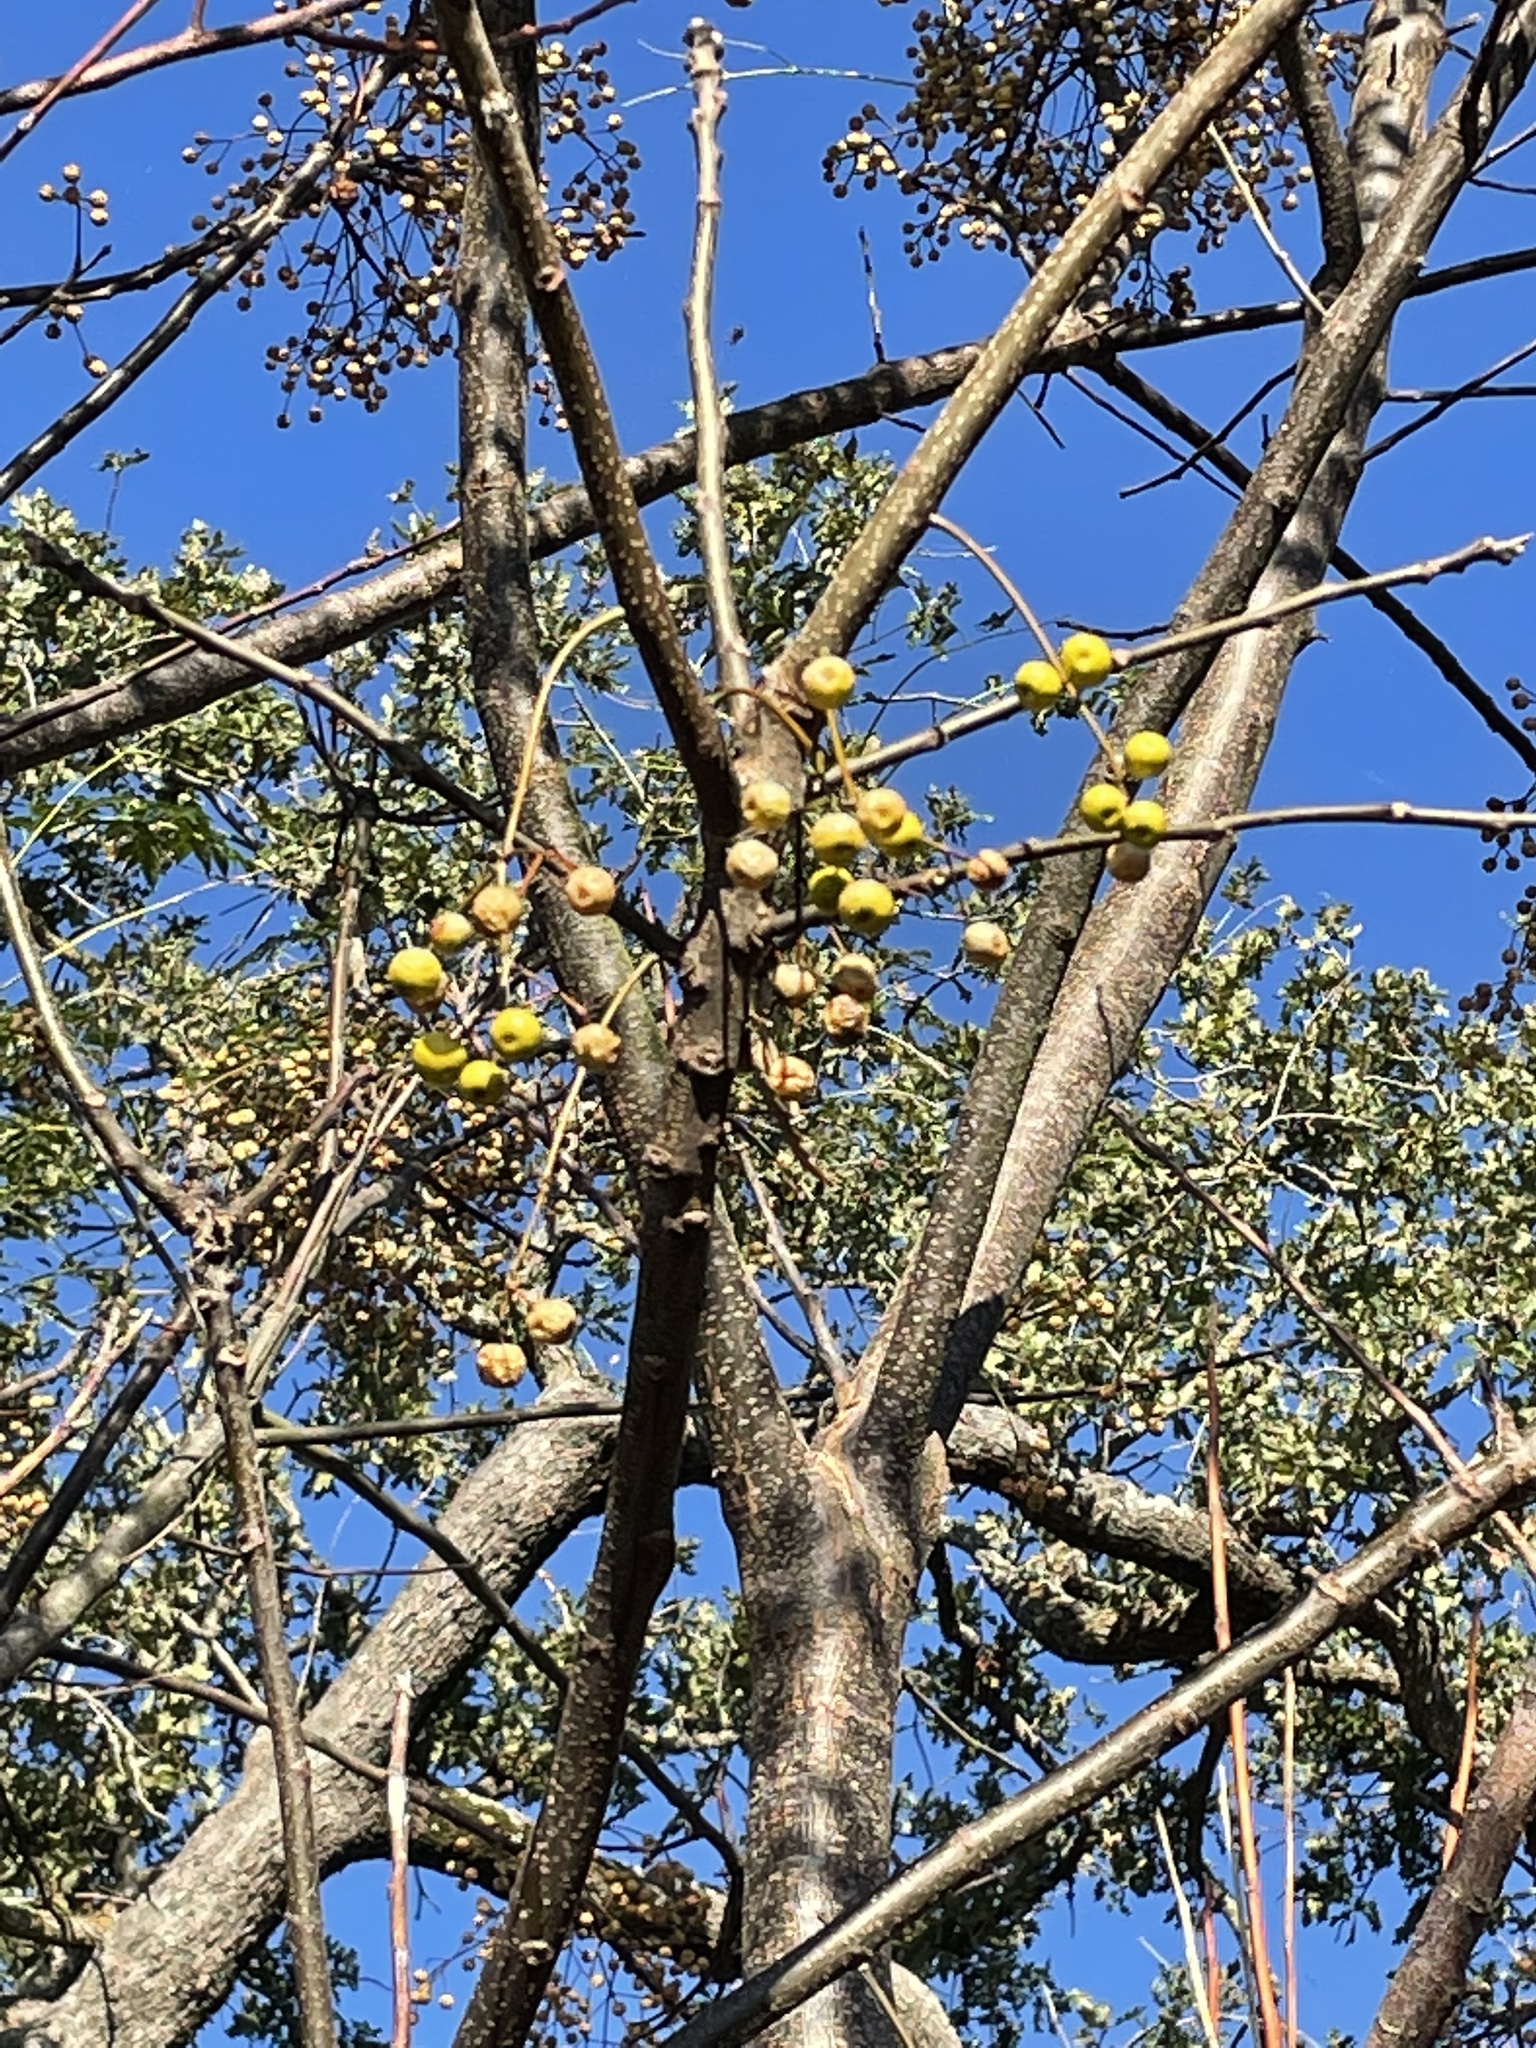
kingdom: Plantae
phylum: Tracheophyta
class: Magnoliopsida
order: Sapindales
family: Meliaceae
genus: Melia
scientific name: Melia azedarach
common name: Chinaberrytree
